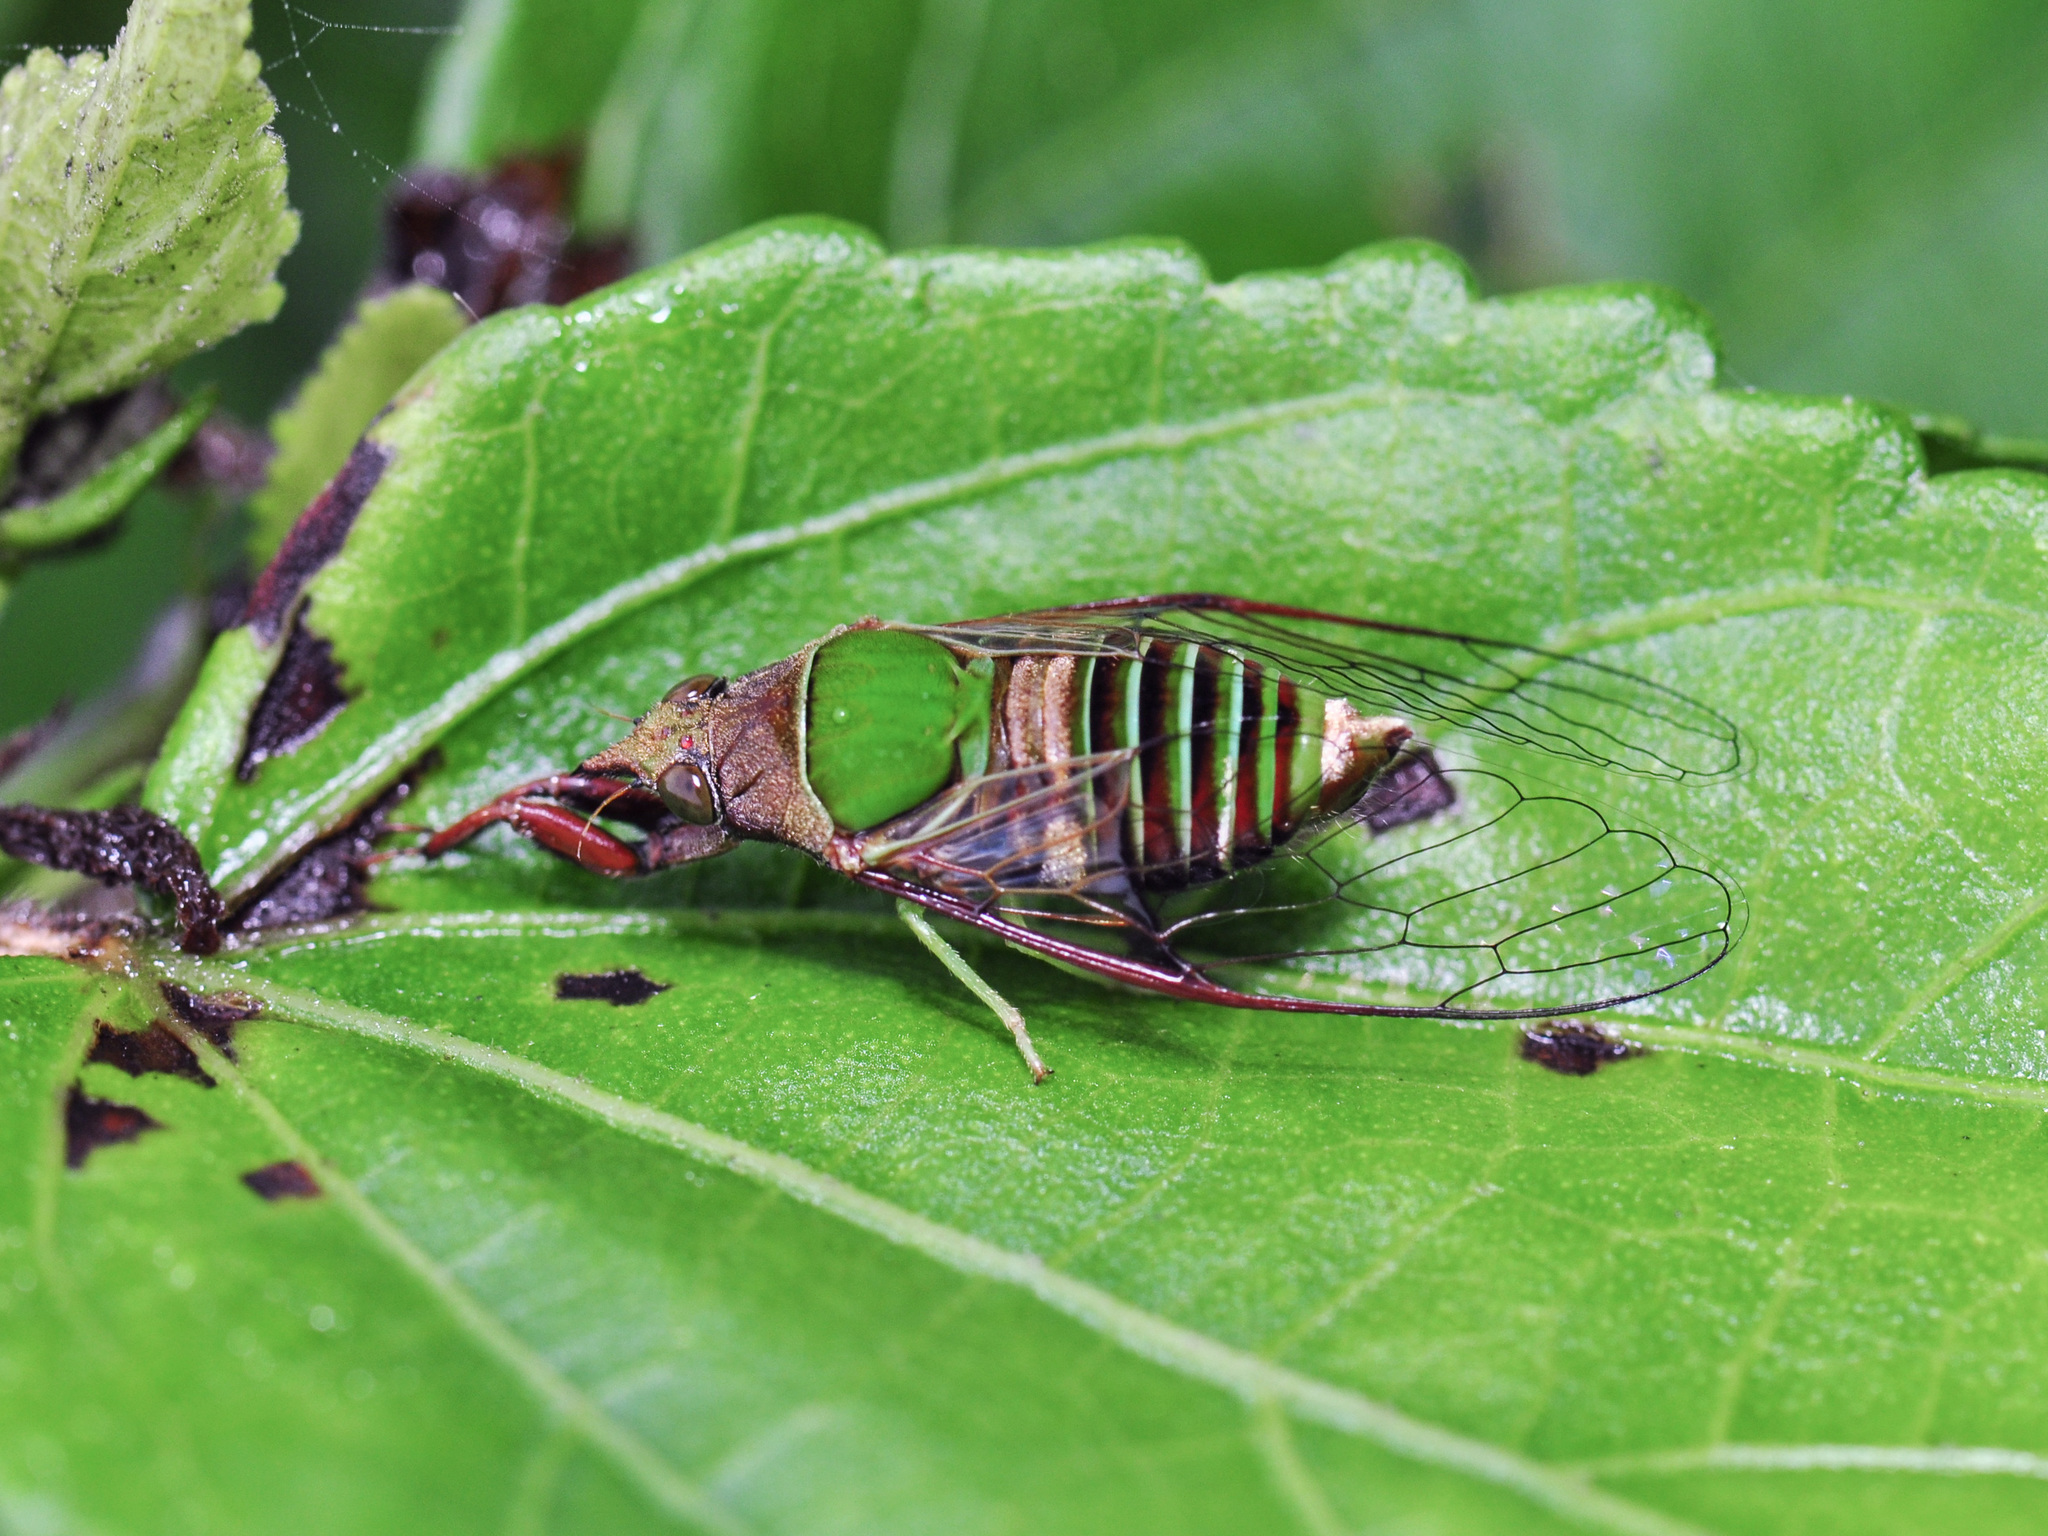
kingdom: Animalia
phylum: Arthropoda
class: Insecta
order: Hemiptera
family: Cicadidae
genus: Mogannia
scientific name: Mogannia sesioides
